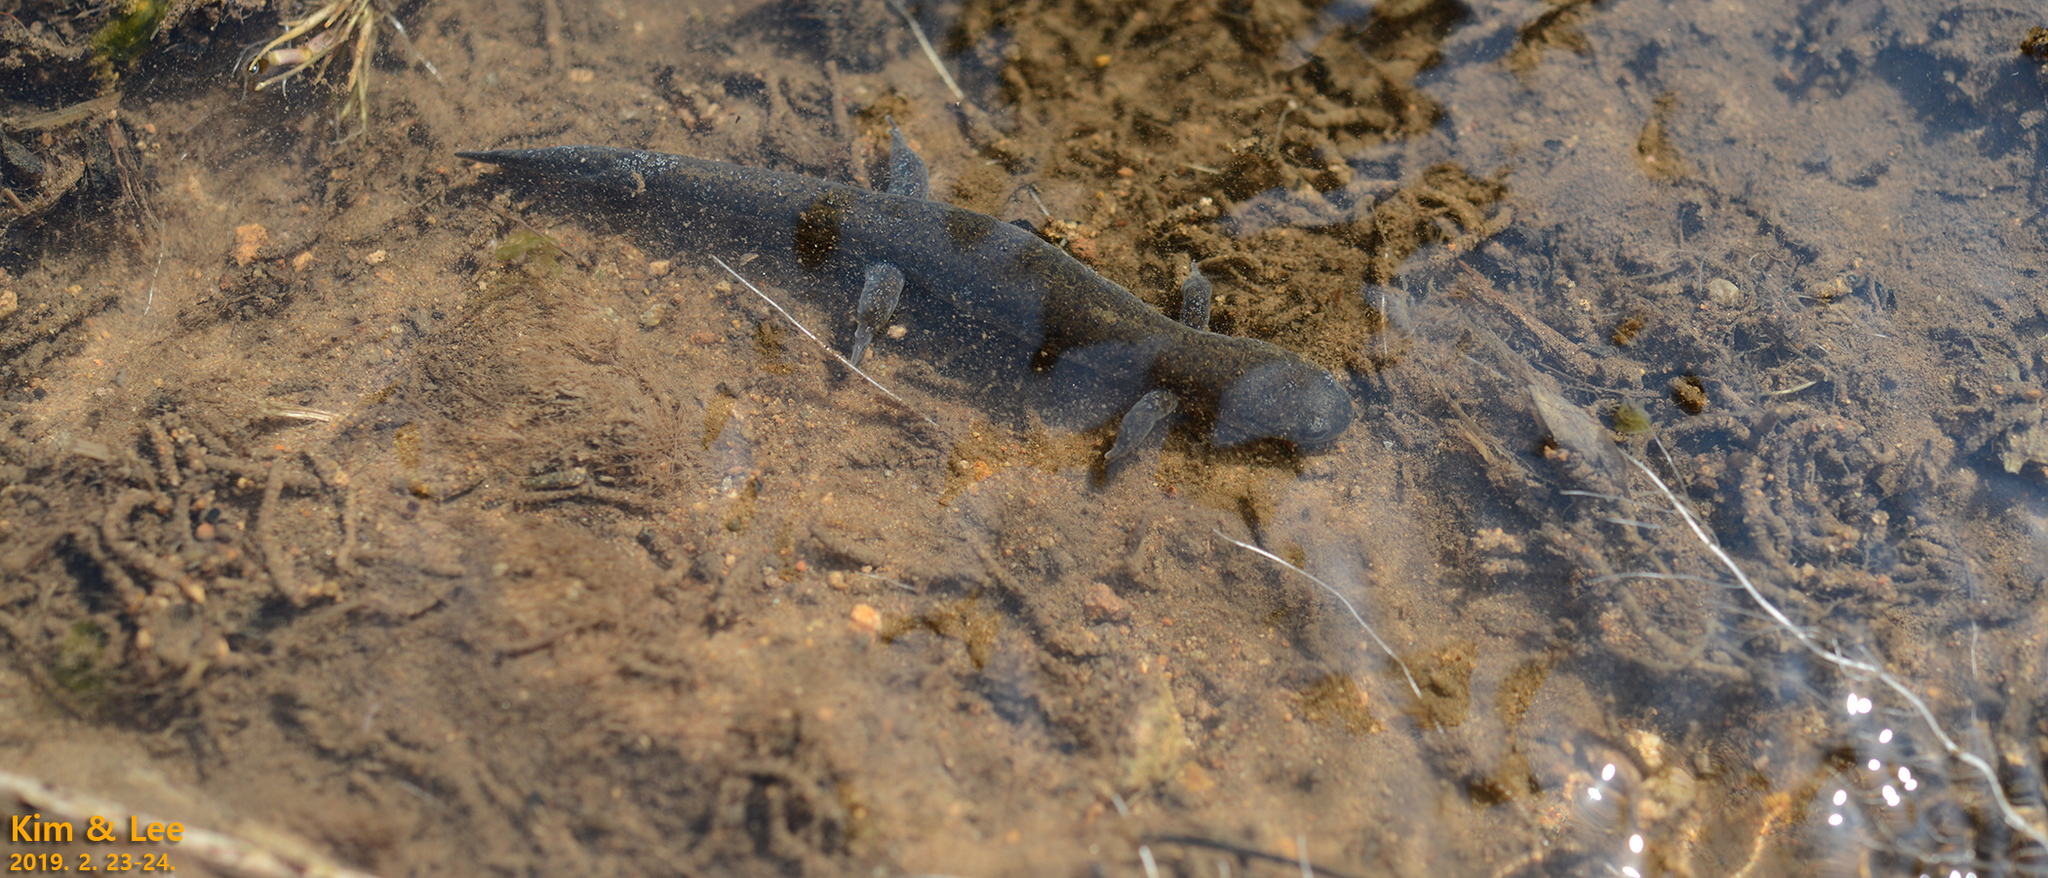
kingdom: Animalia
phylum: Chordata
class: Amphibia
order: Caudata
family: Hynobiidae
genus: Hynobius
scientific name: Hynobius unisacculus
